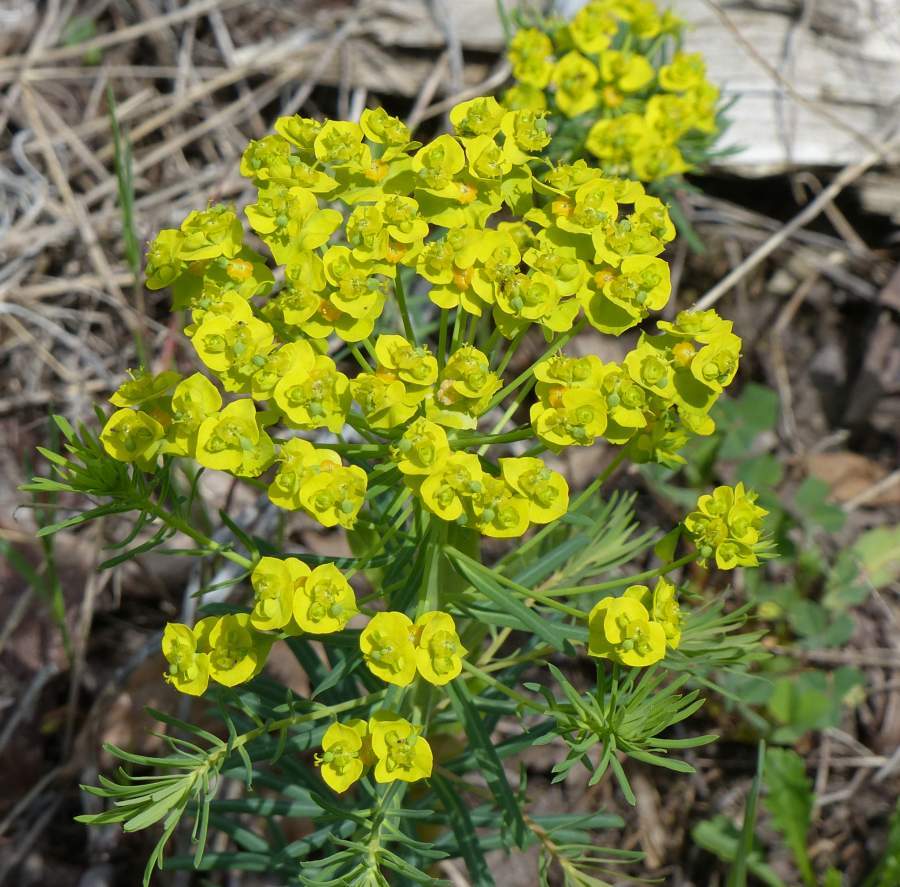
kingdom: Plantae
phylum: Tracheophyta
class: Magnoliopsida
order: Malpighiales
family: Euphorbiaceae
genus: Euphorbia
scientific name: Euphorbia cyparissias
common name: Cypress spurge
